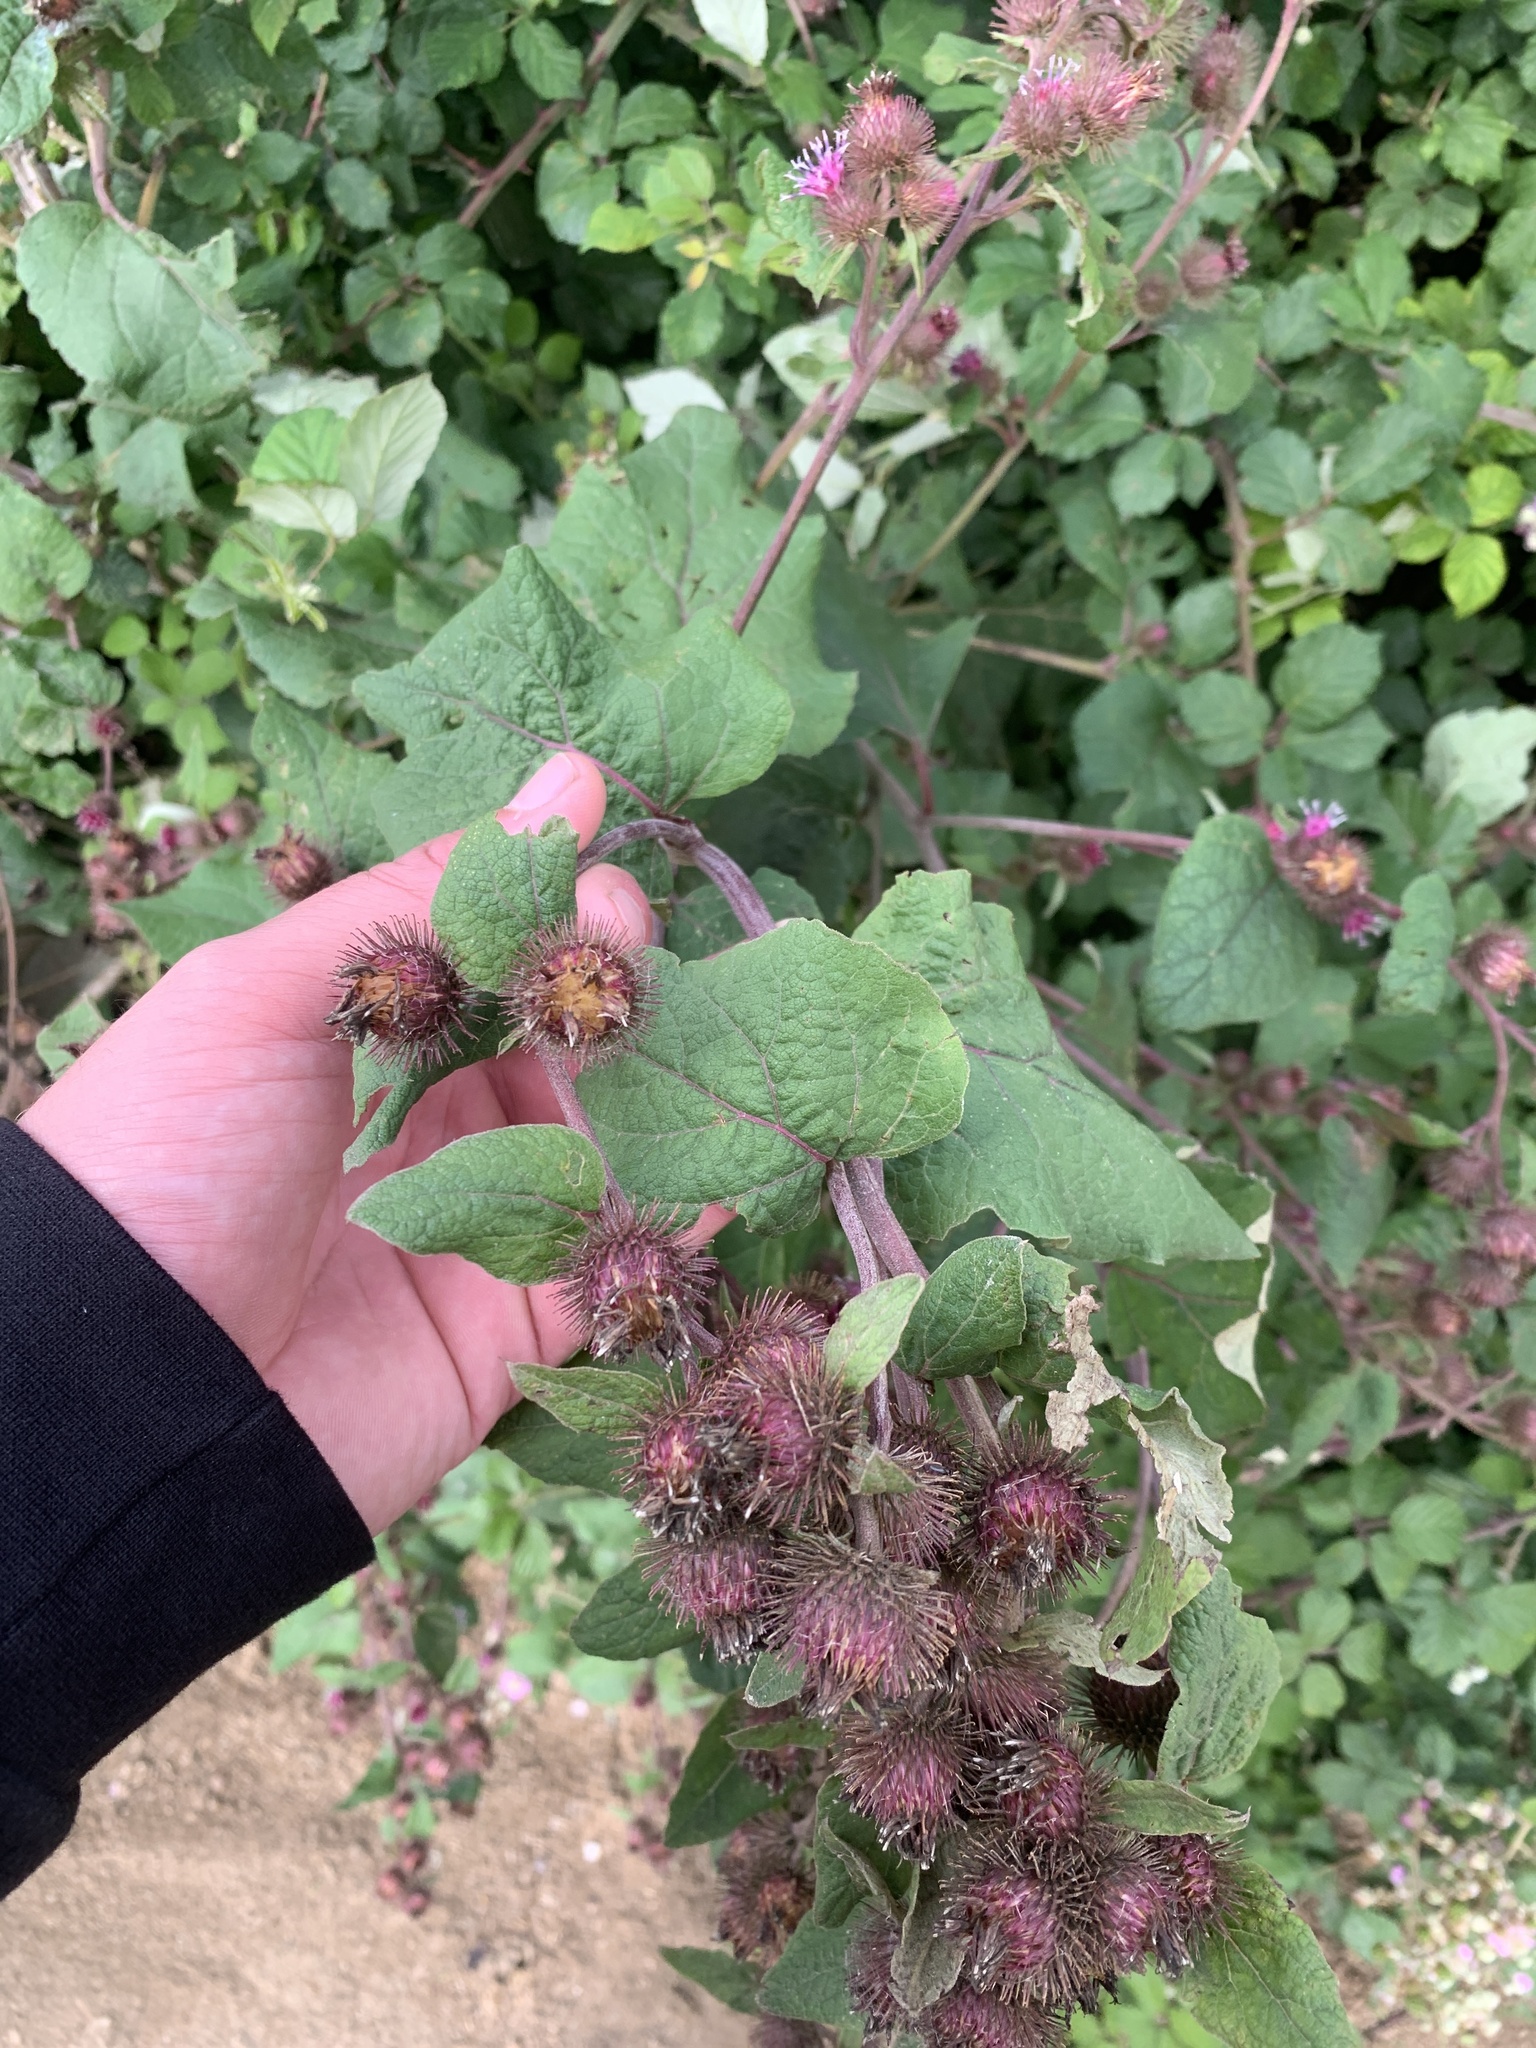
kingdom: Plantae
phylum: Tracheophyta
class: Magnoliopsida
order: Asterales
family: Asteraceae
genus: Arctium
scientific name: Arctium minus
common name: Lesser burdock
